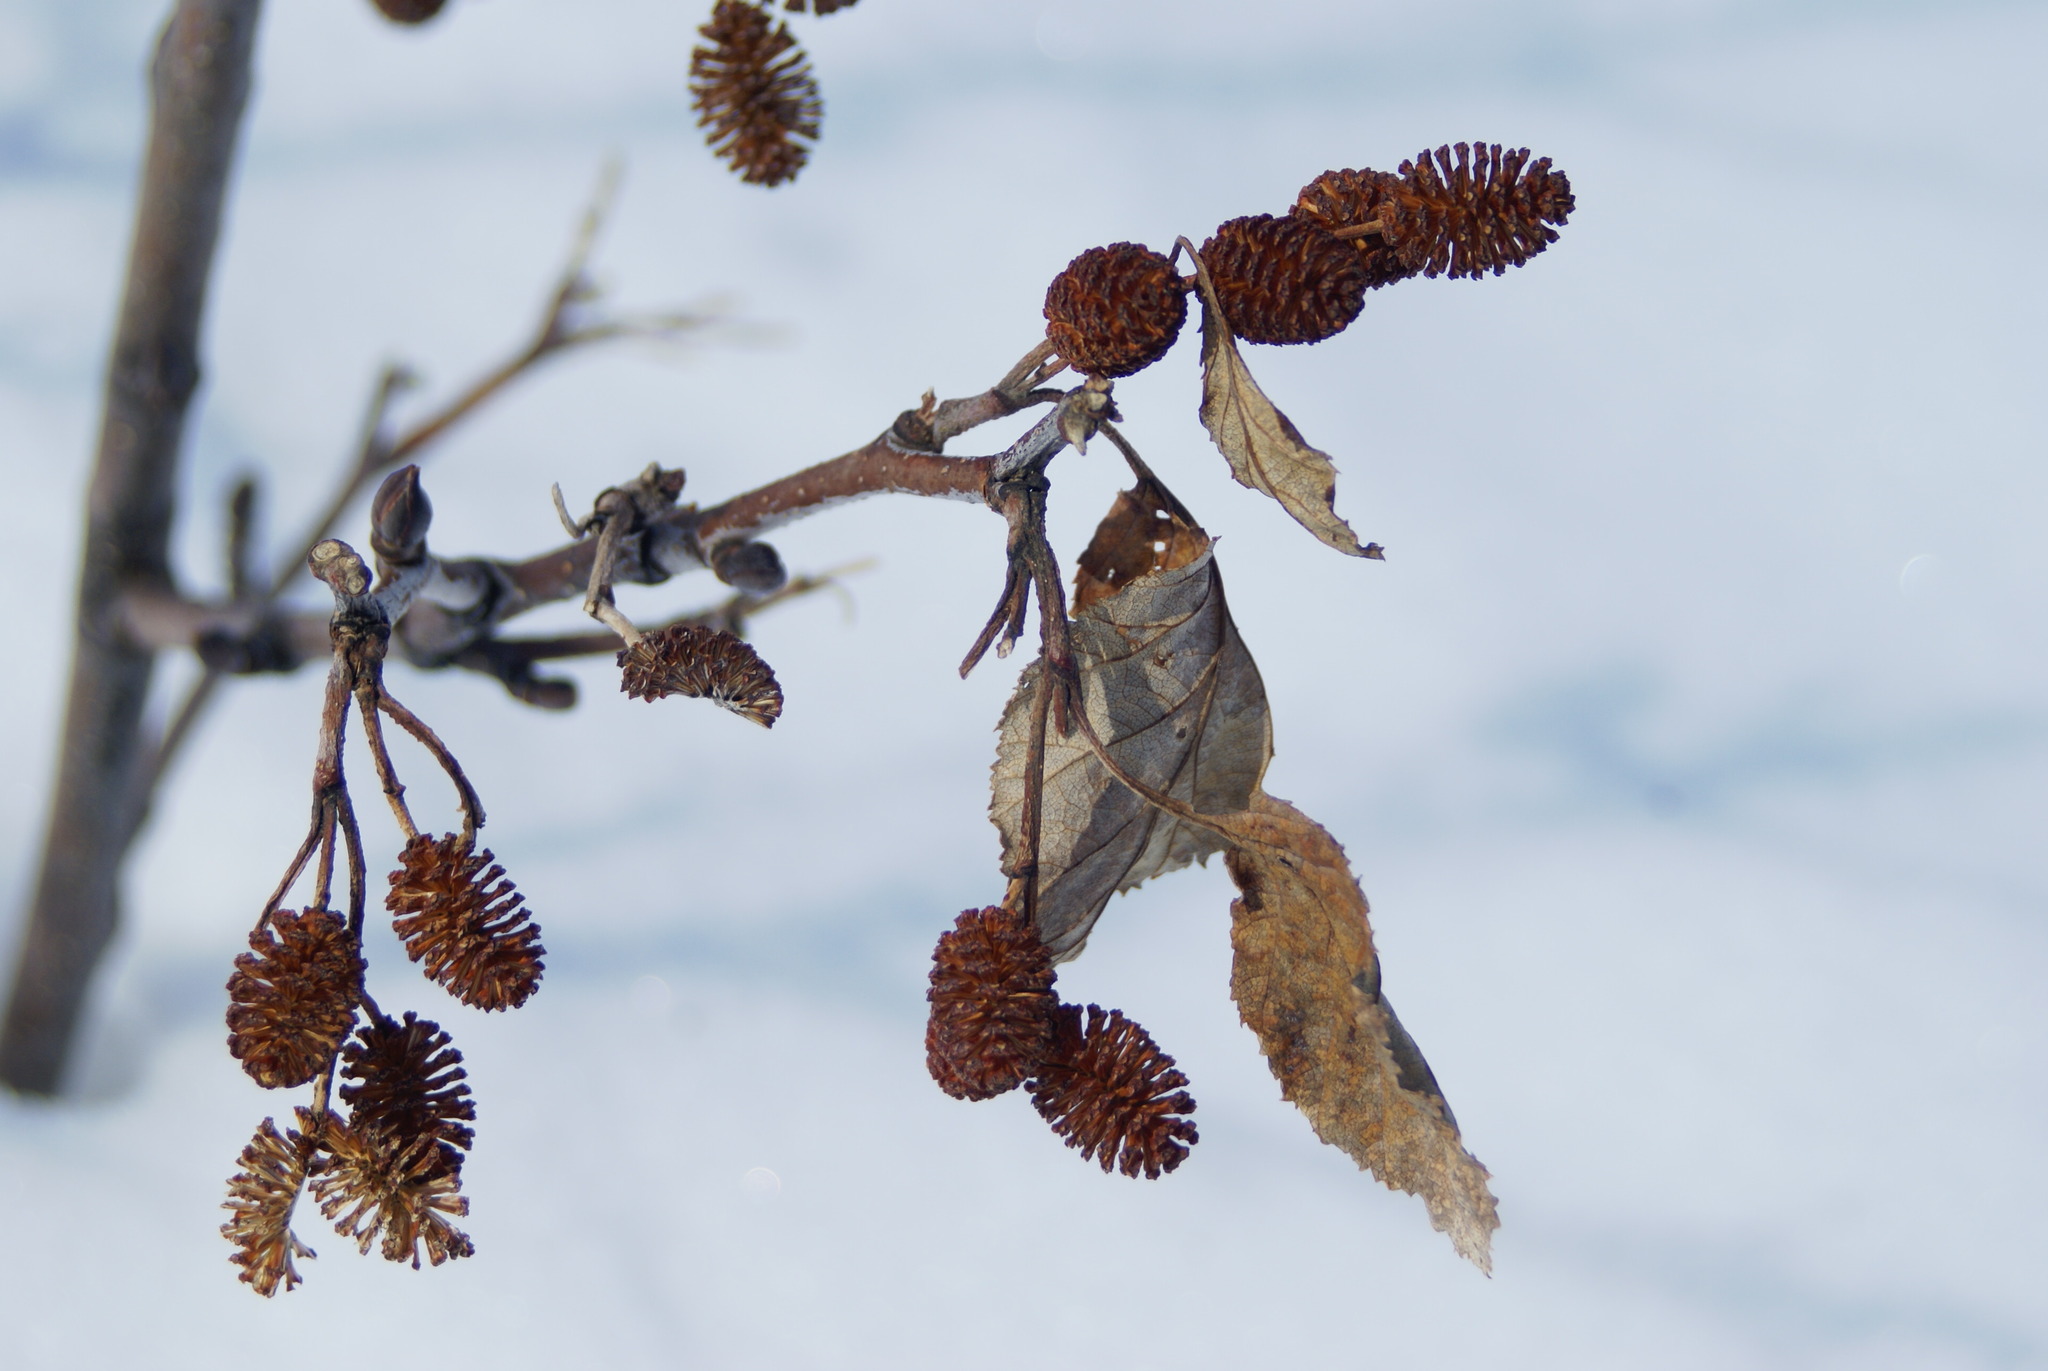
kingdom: Plantae
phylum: Tracheophyta
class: Magnoliopsida
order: Fagales
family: Betulaceae
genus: Alnus
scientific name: Alnus alnobetula
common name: Green alder
